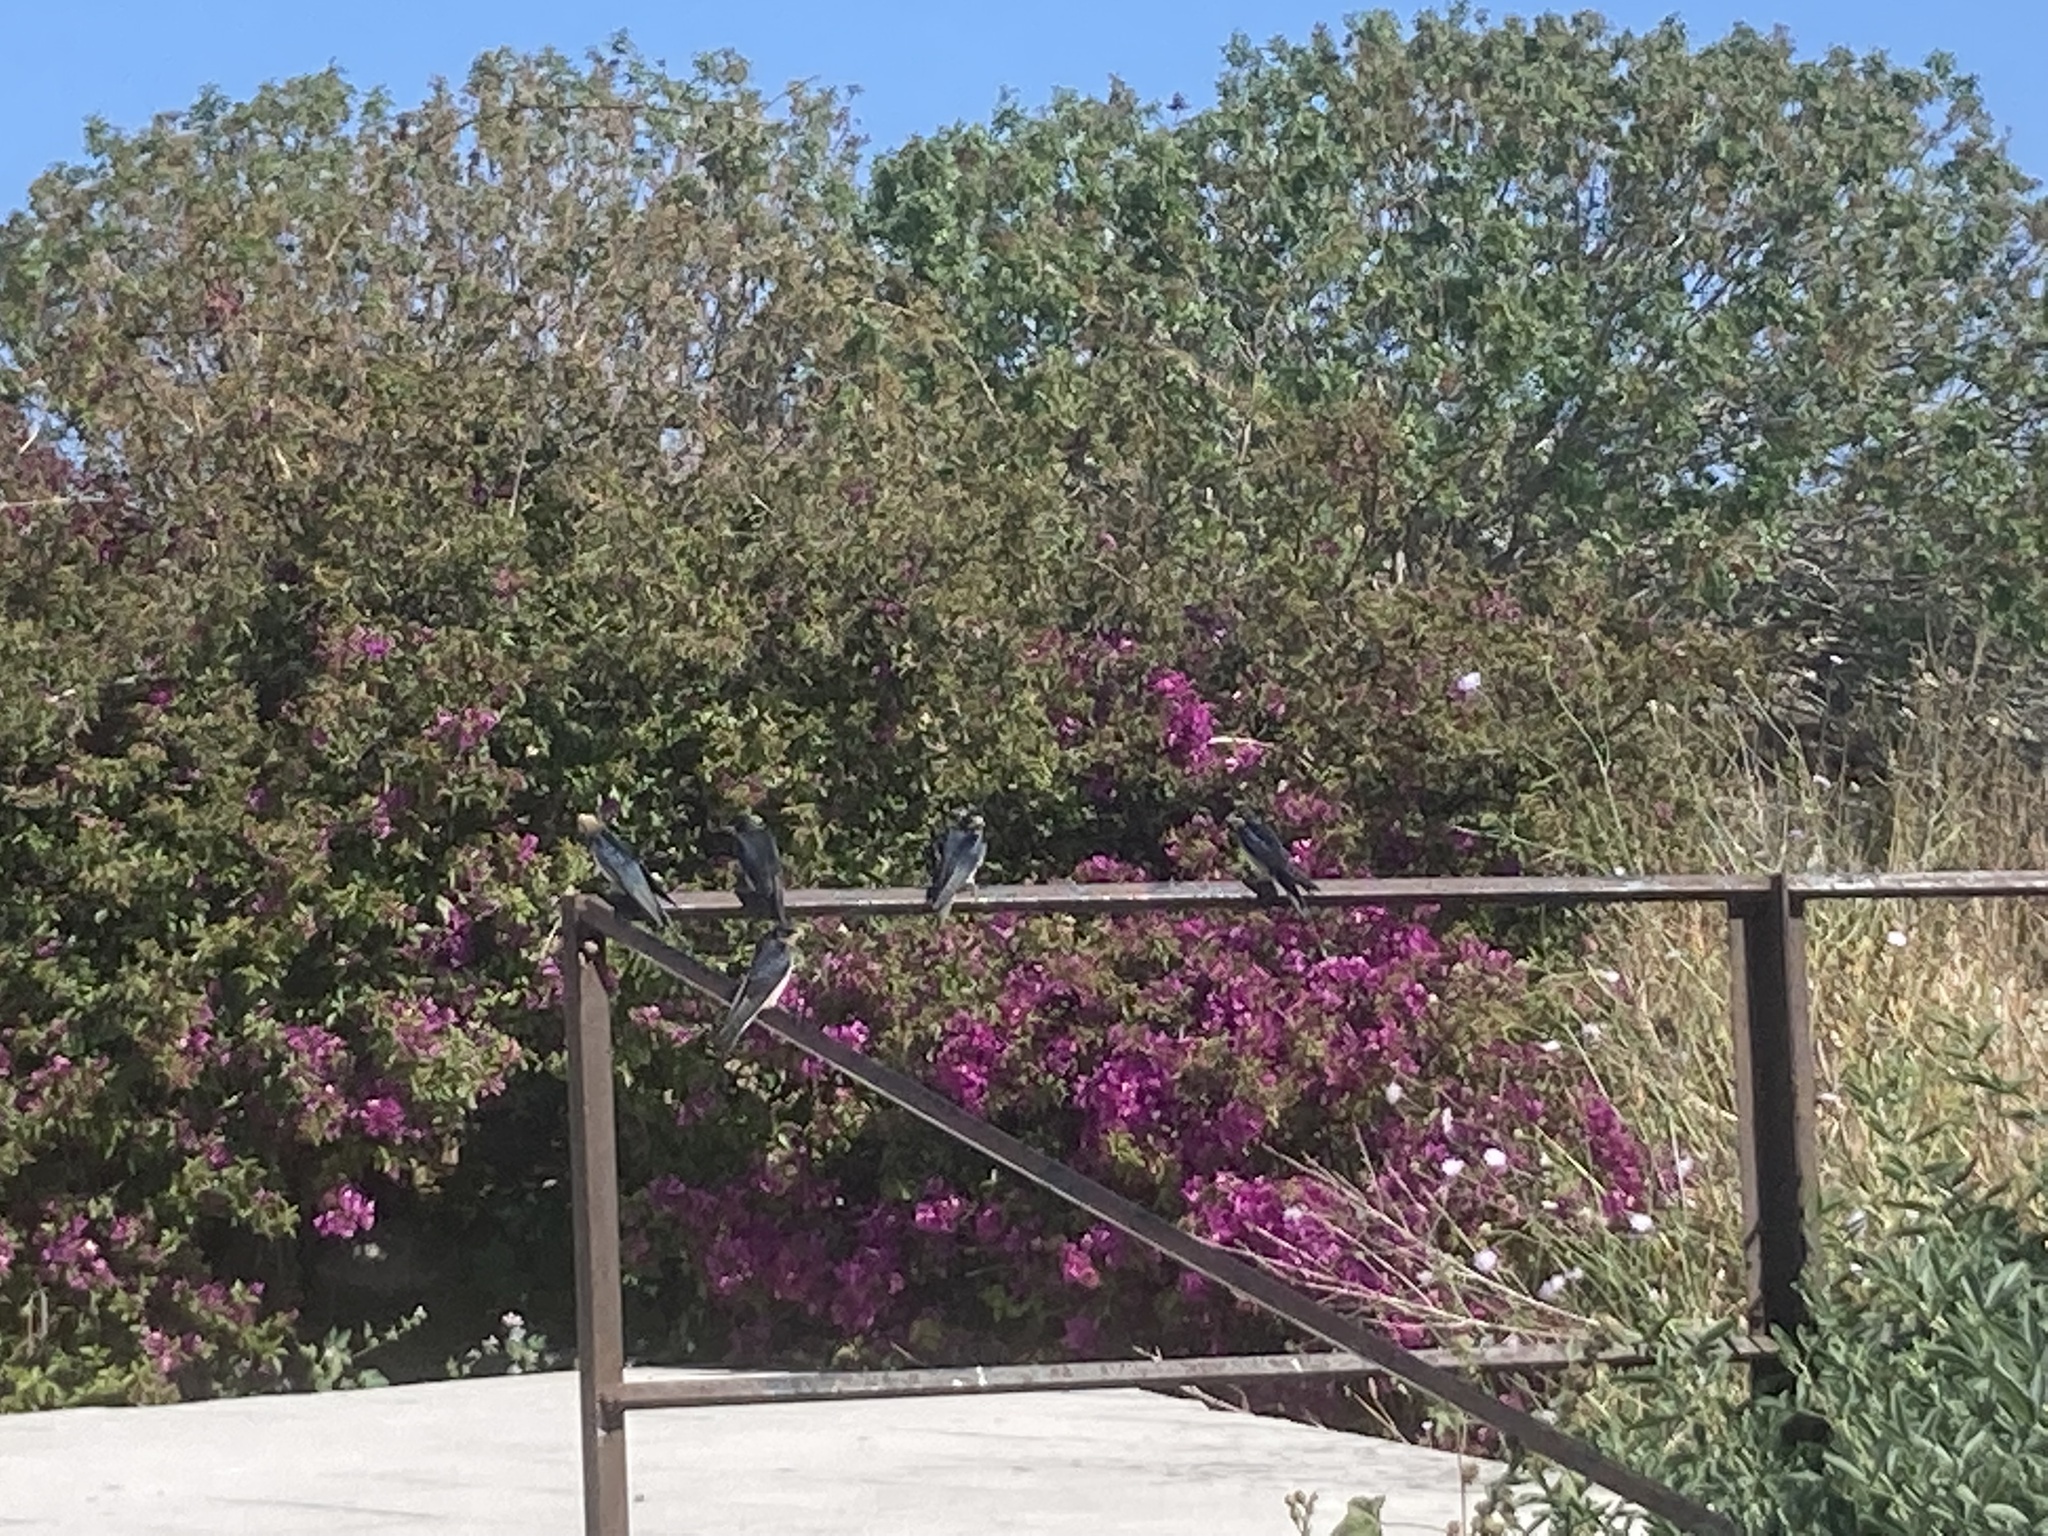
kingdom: Animalia
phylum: Chordata
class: Aves
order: Passeriformes
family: Hirundinidae
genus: Hirundo
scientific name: Hirundo rustica
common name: Barn swallow
